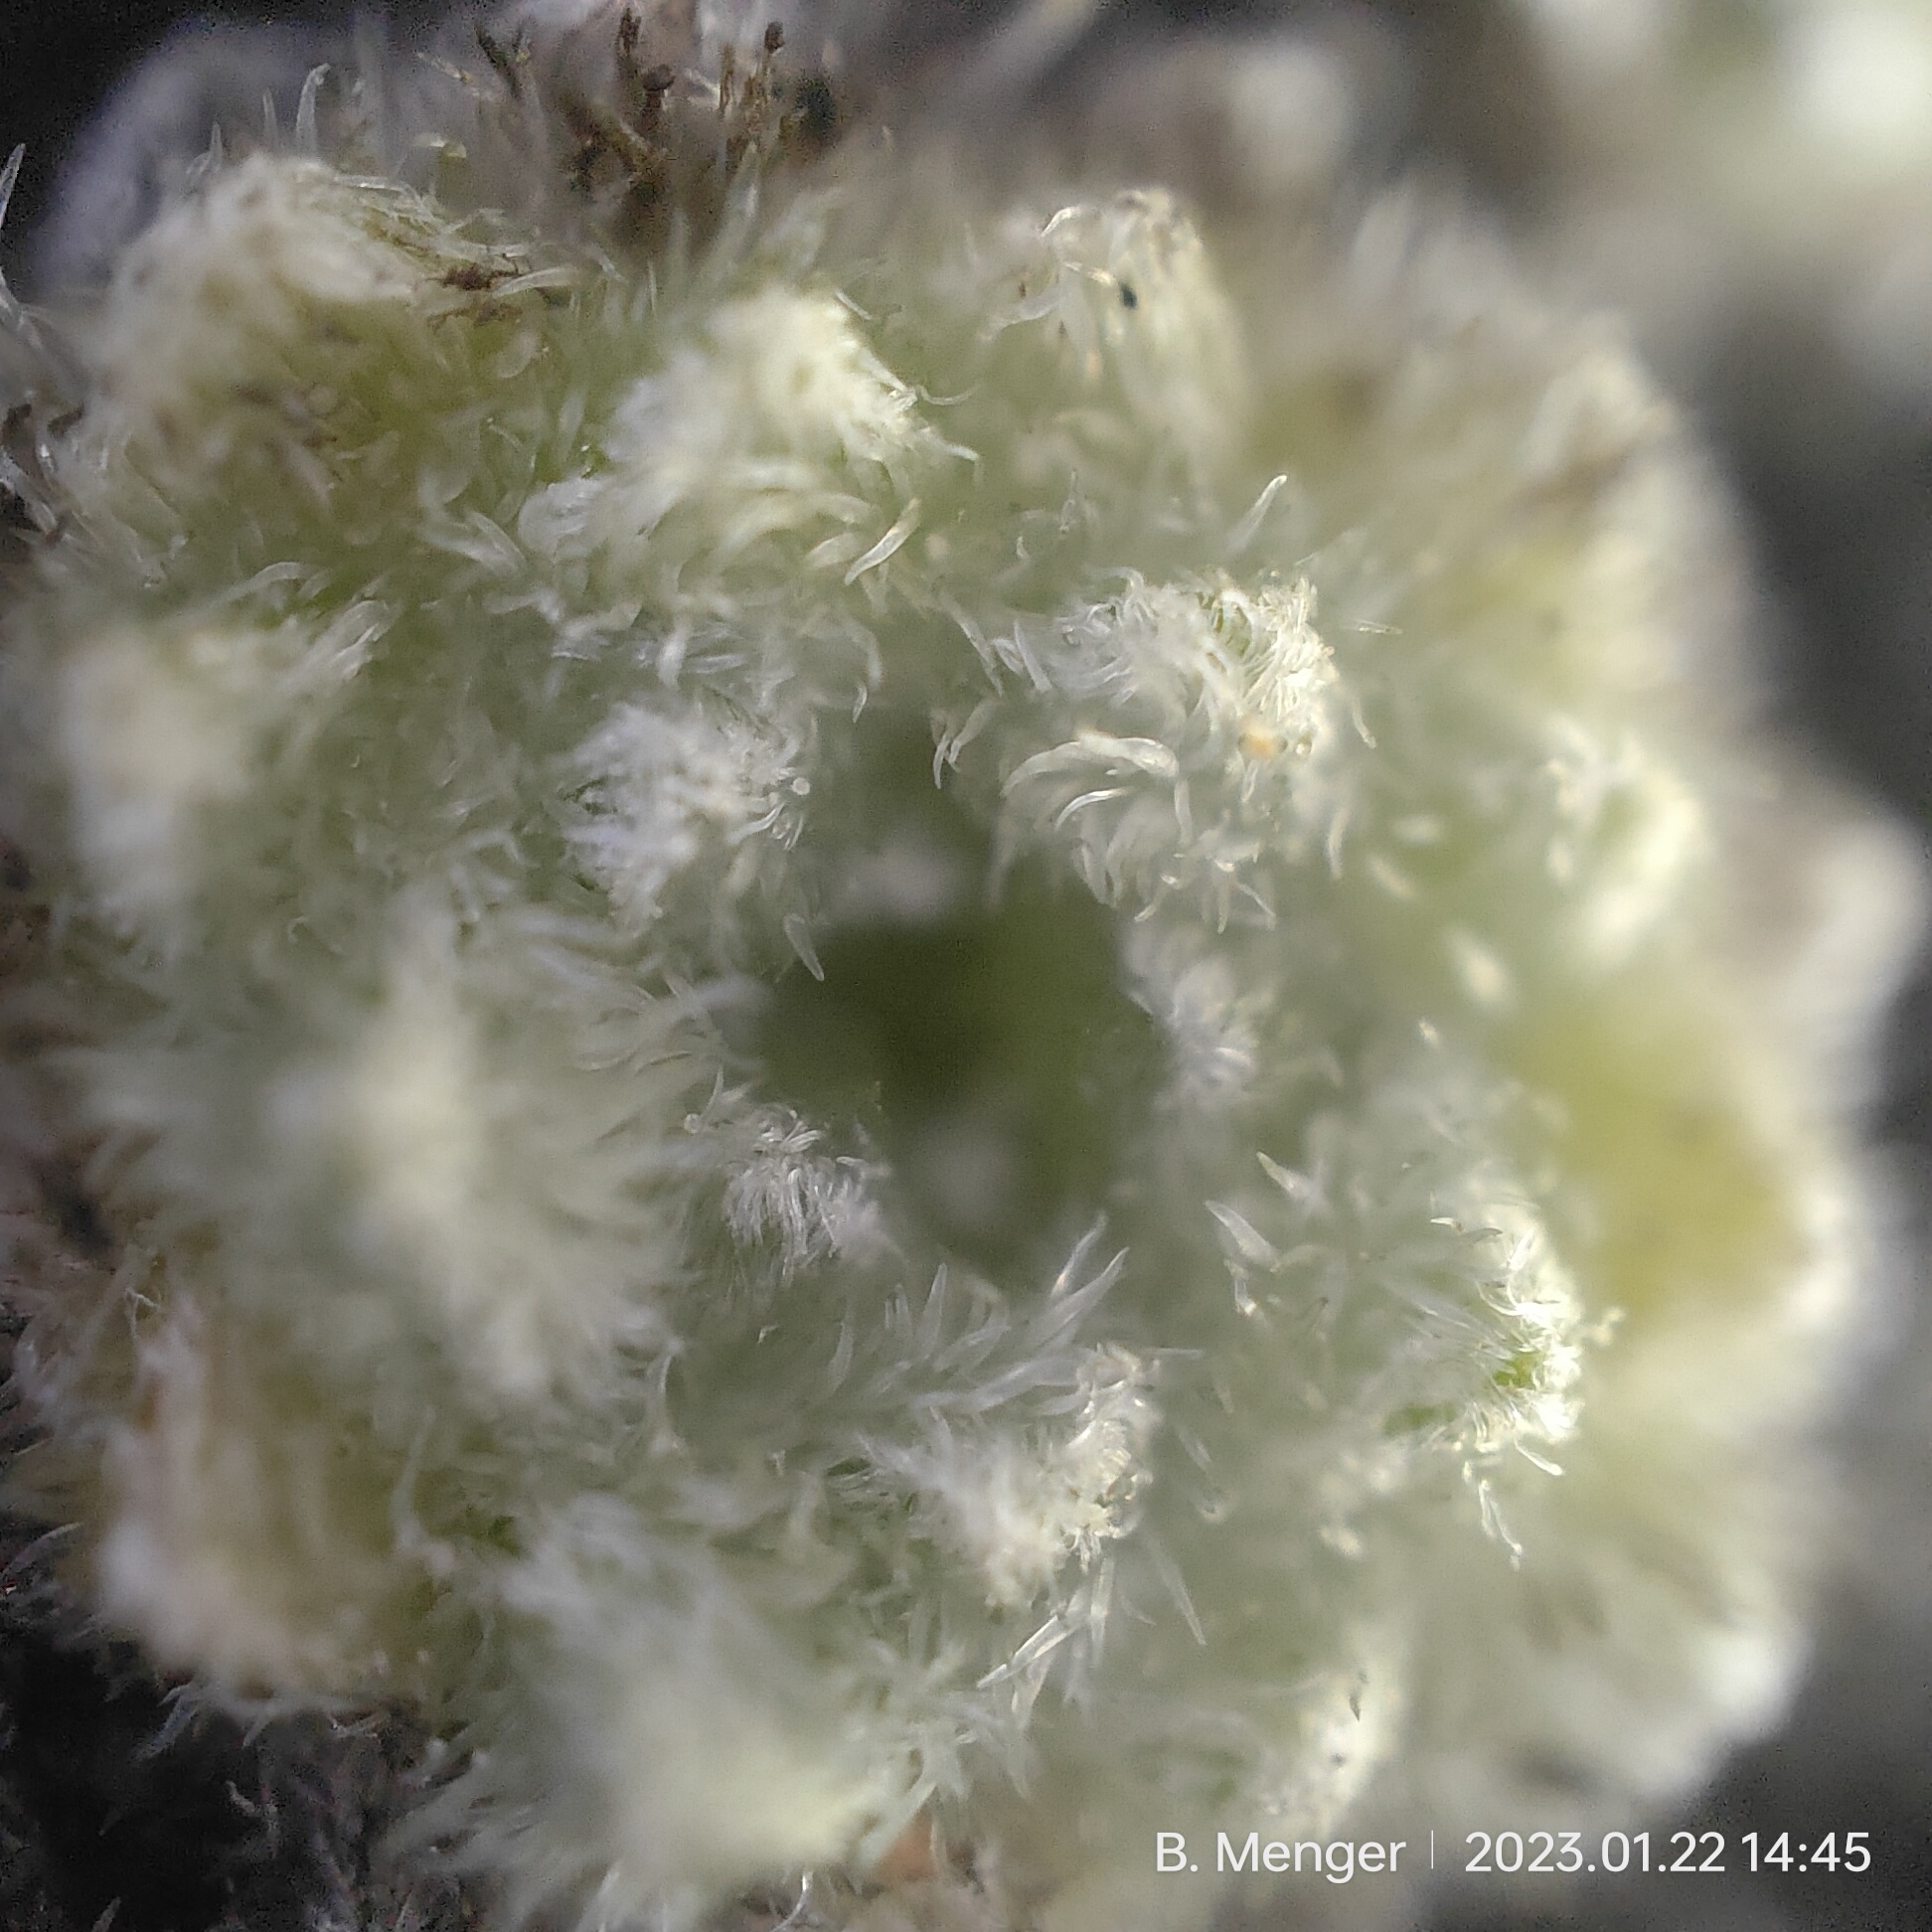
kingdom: Plantae
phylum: Tracheophyta
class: Magnoliopsida
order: Asterales
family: Asteraceae
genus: Raoulia
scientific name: Raoulia mammillaris
